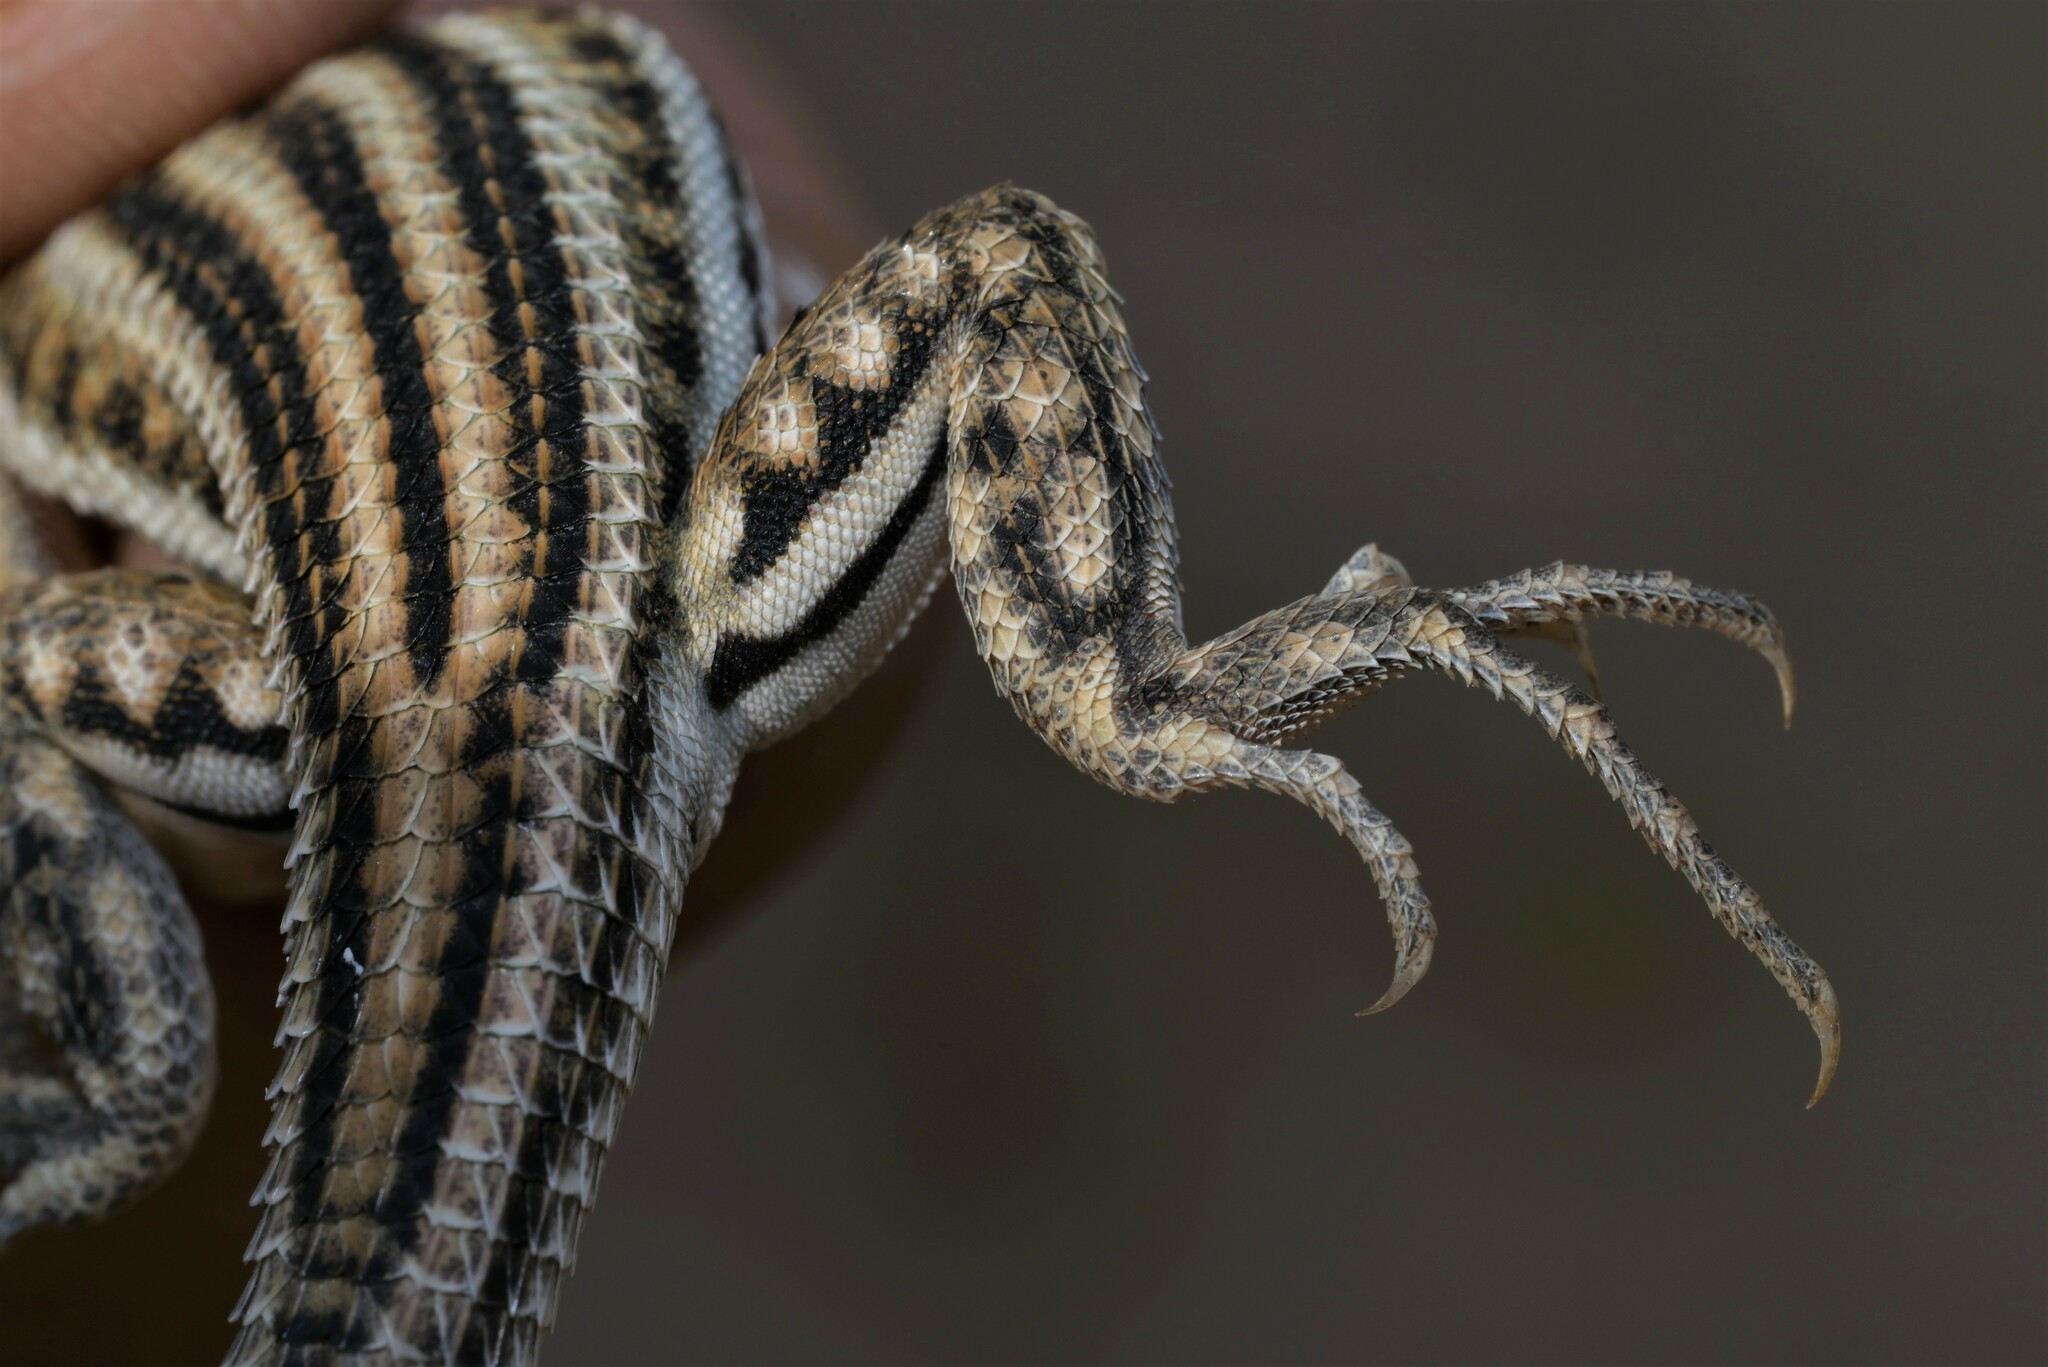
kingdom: Animalia
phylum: Chordata
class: Squamata
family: Lacertidae
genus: Acanthodactylus
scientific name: Acanthodactylus boskianus
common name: Bosc’s fringe-toed lizard
